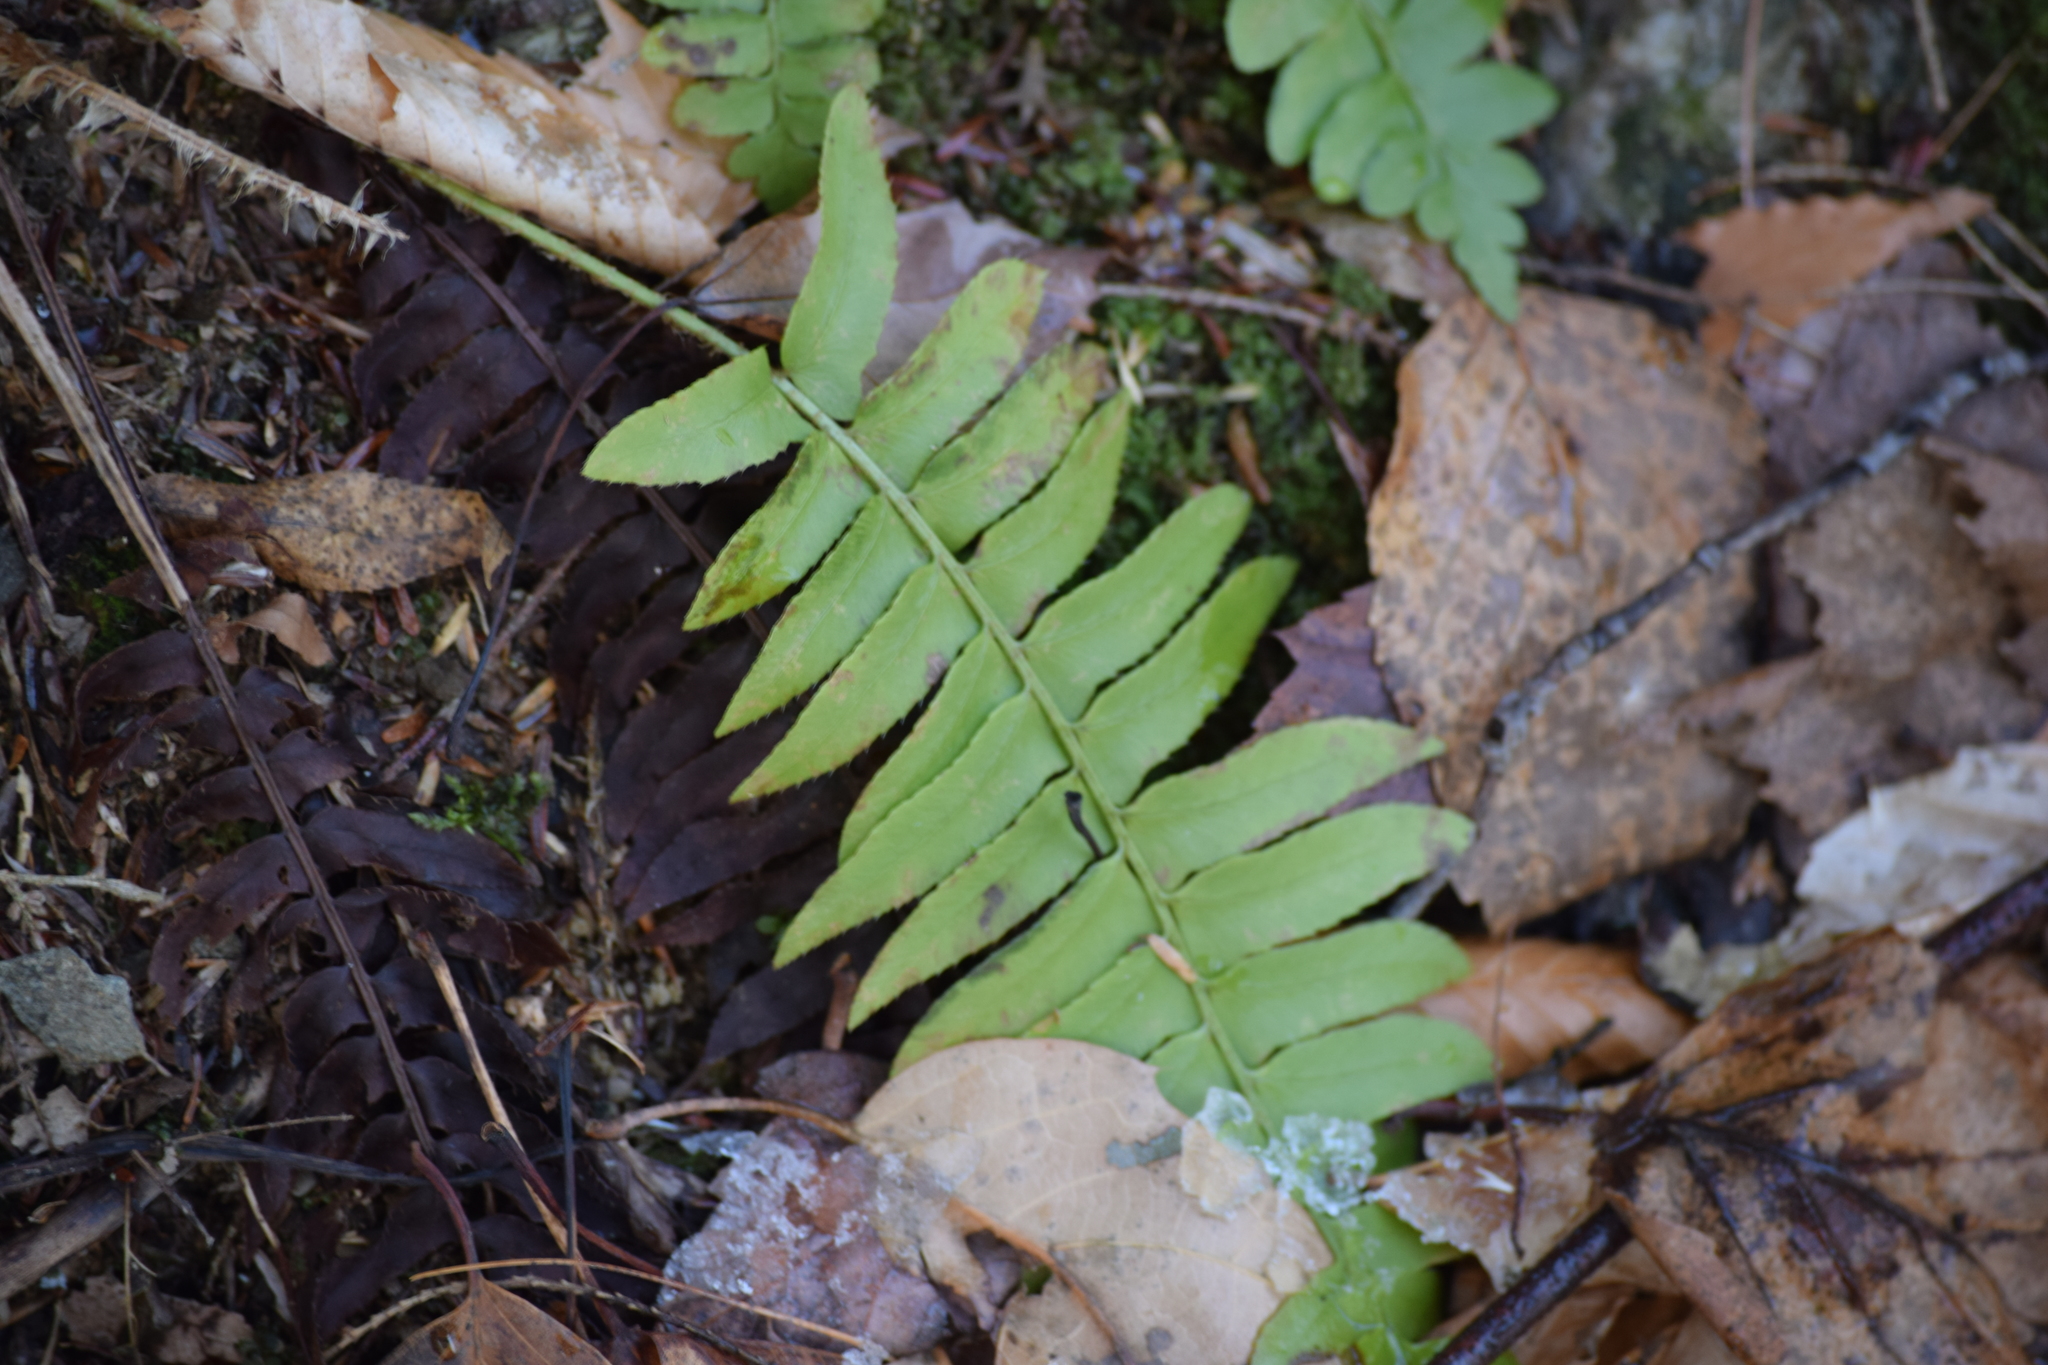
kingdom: Plantae
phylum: Tracheophyta
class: Polypodiopsida
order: Polypodiales
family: Dryopteridaceae
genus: Polystichum
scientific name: Polystichum acrostichoides
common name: Christmas fern
